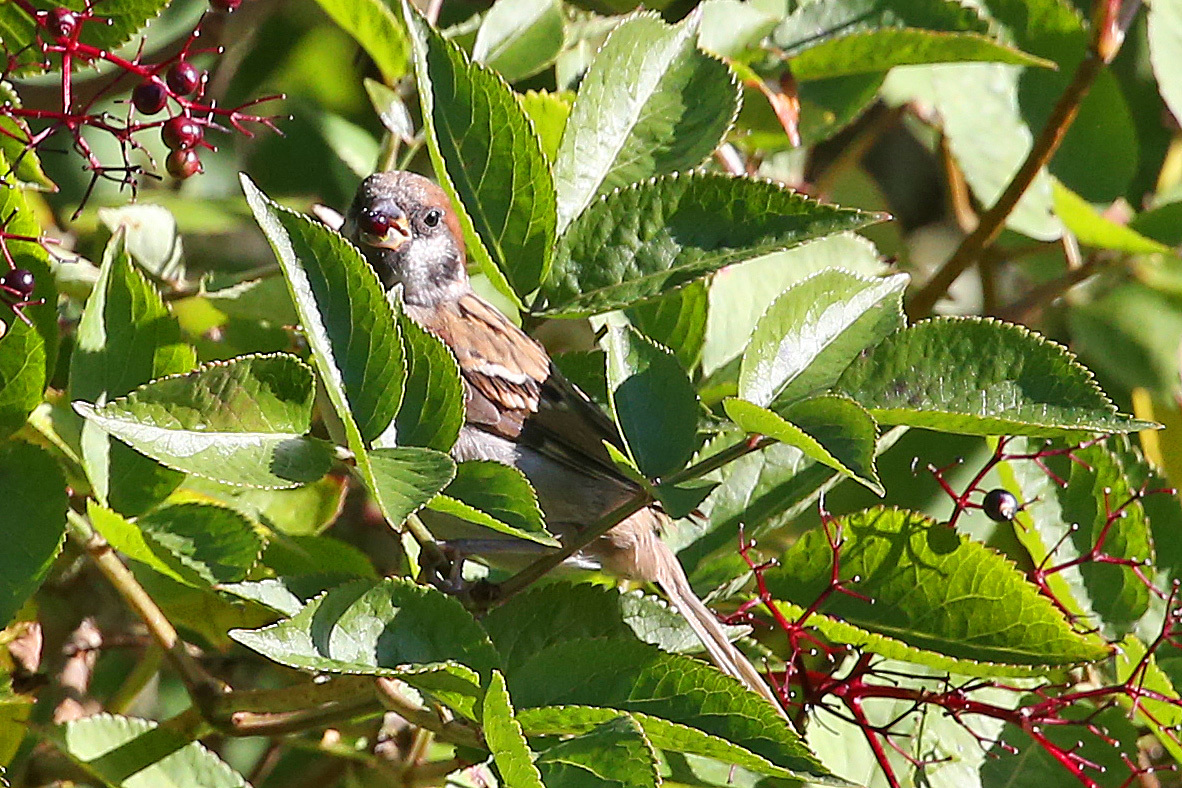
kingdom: Animalia
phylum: Chordata
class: Aves
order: Passeriformes
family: Passeridae
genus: Passer
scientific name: Passer montanus
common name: Eurasian tree sparrow
